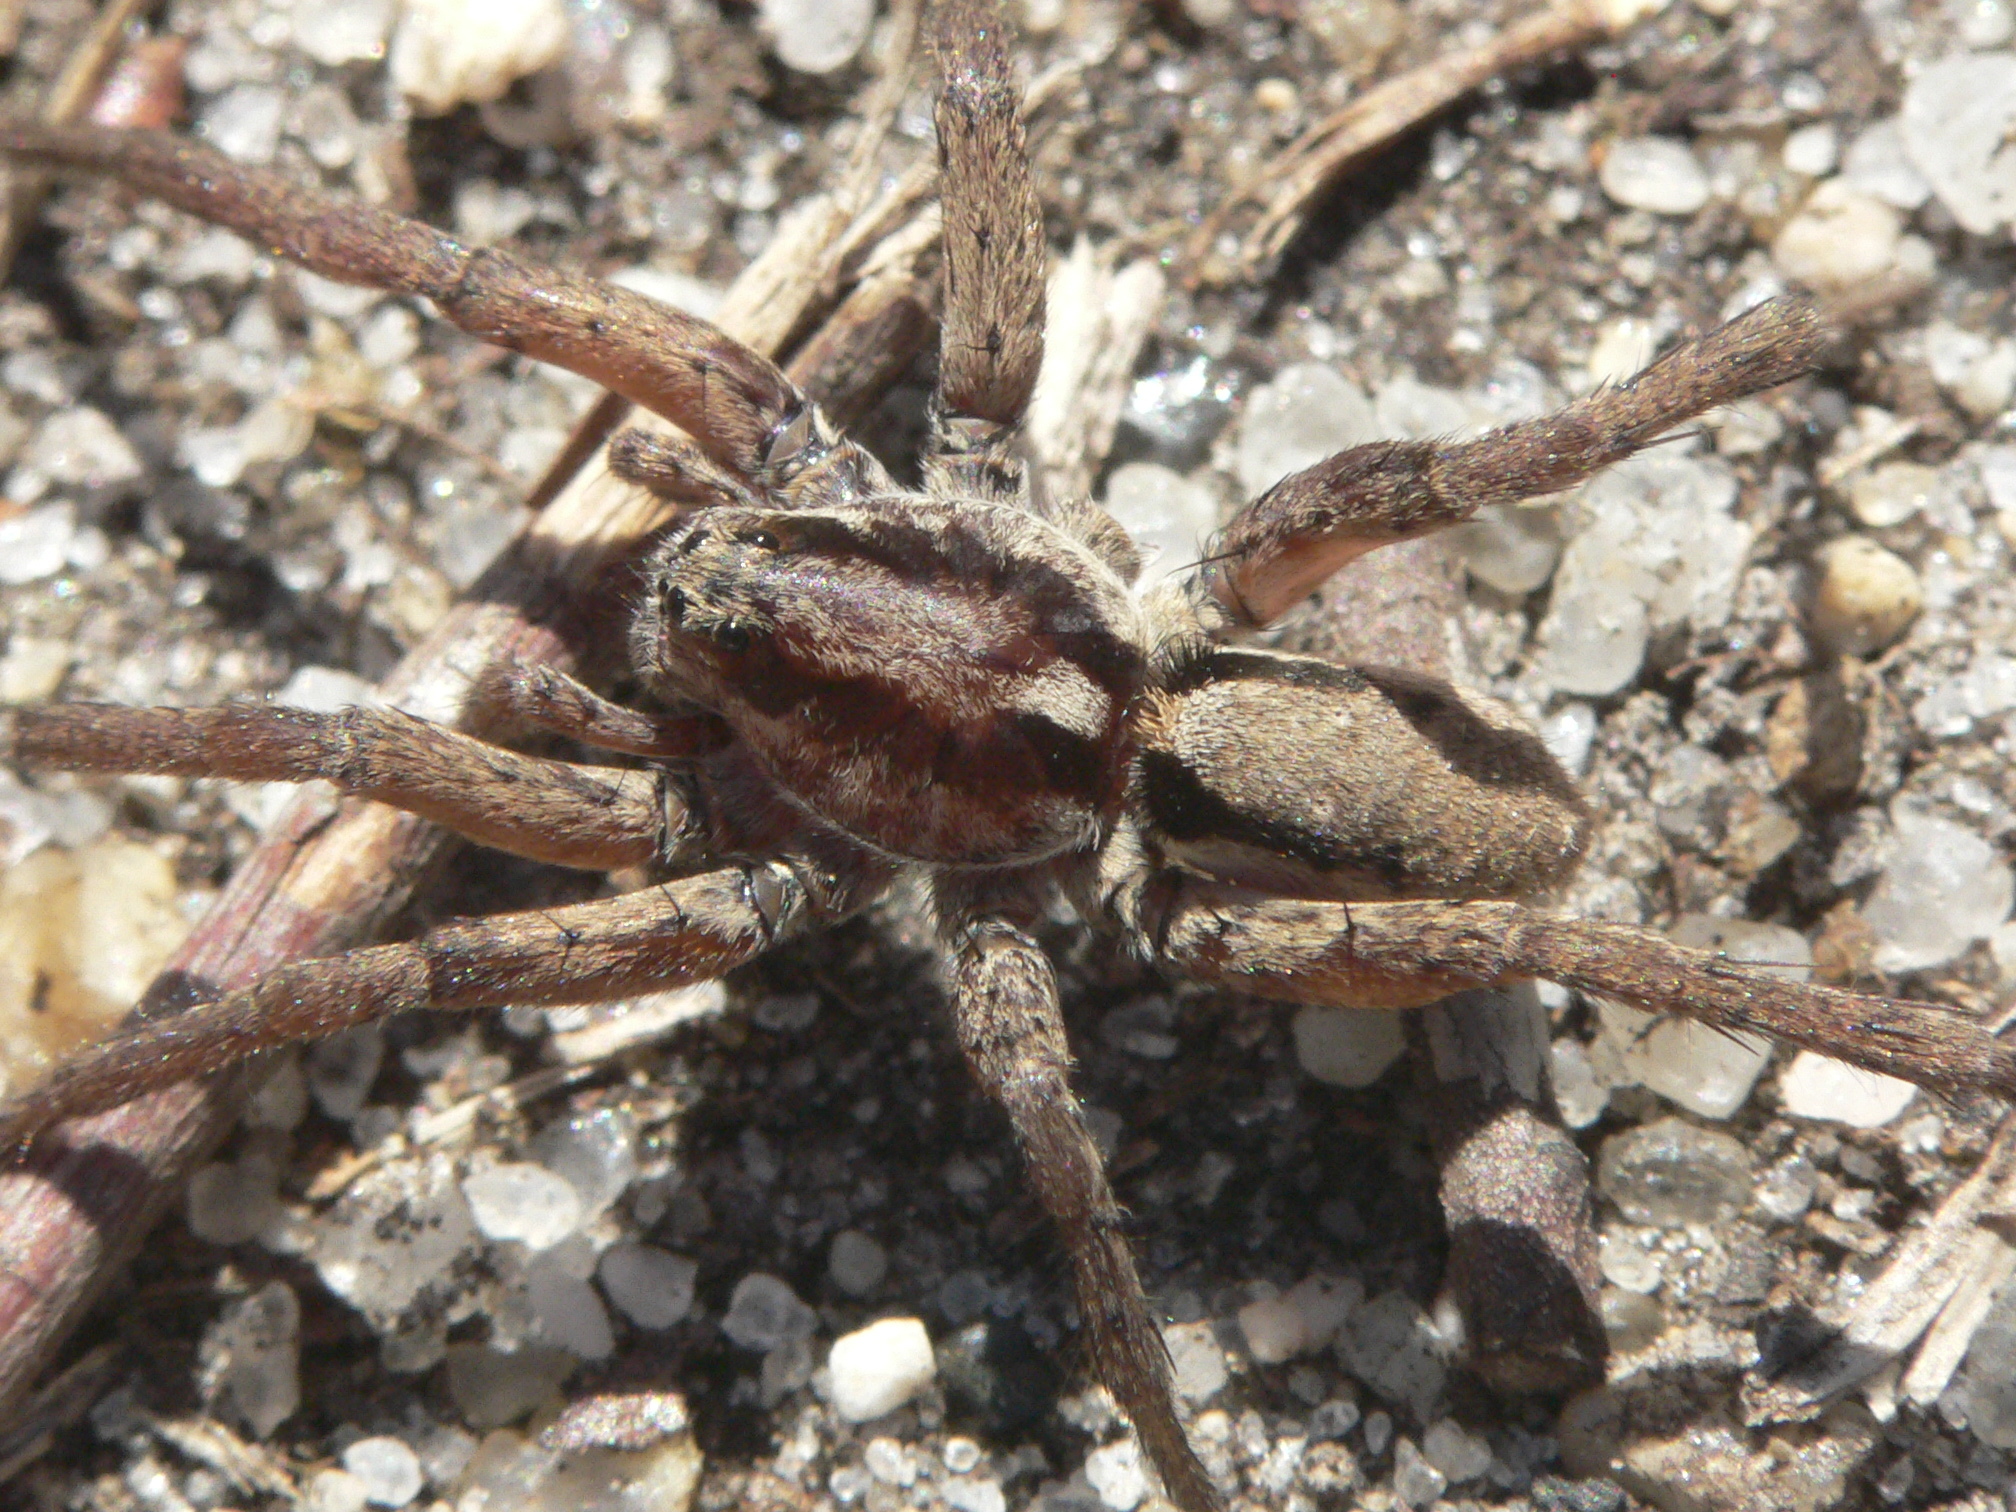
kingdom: Animalia
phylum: Arthropoda
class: Arachnida
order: Araneae
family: Lycosidae
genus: Gladicosa
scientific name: Gladicosa gulosa
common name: Drumming sword wolf spider
